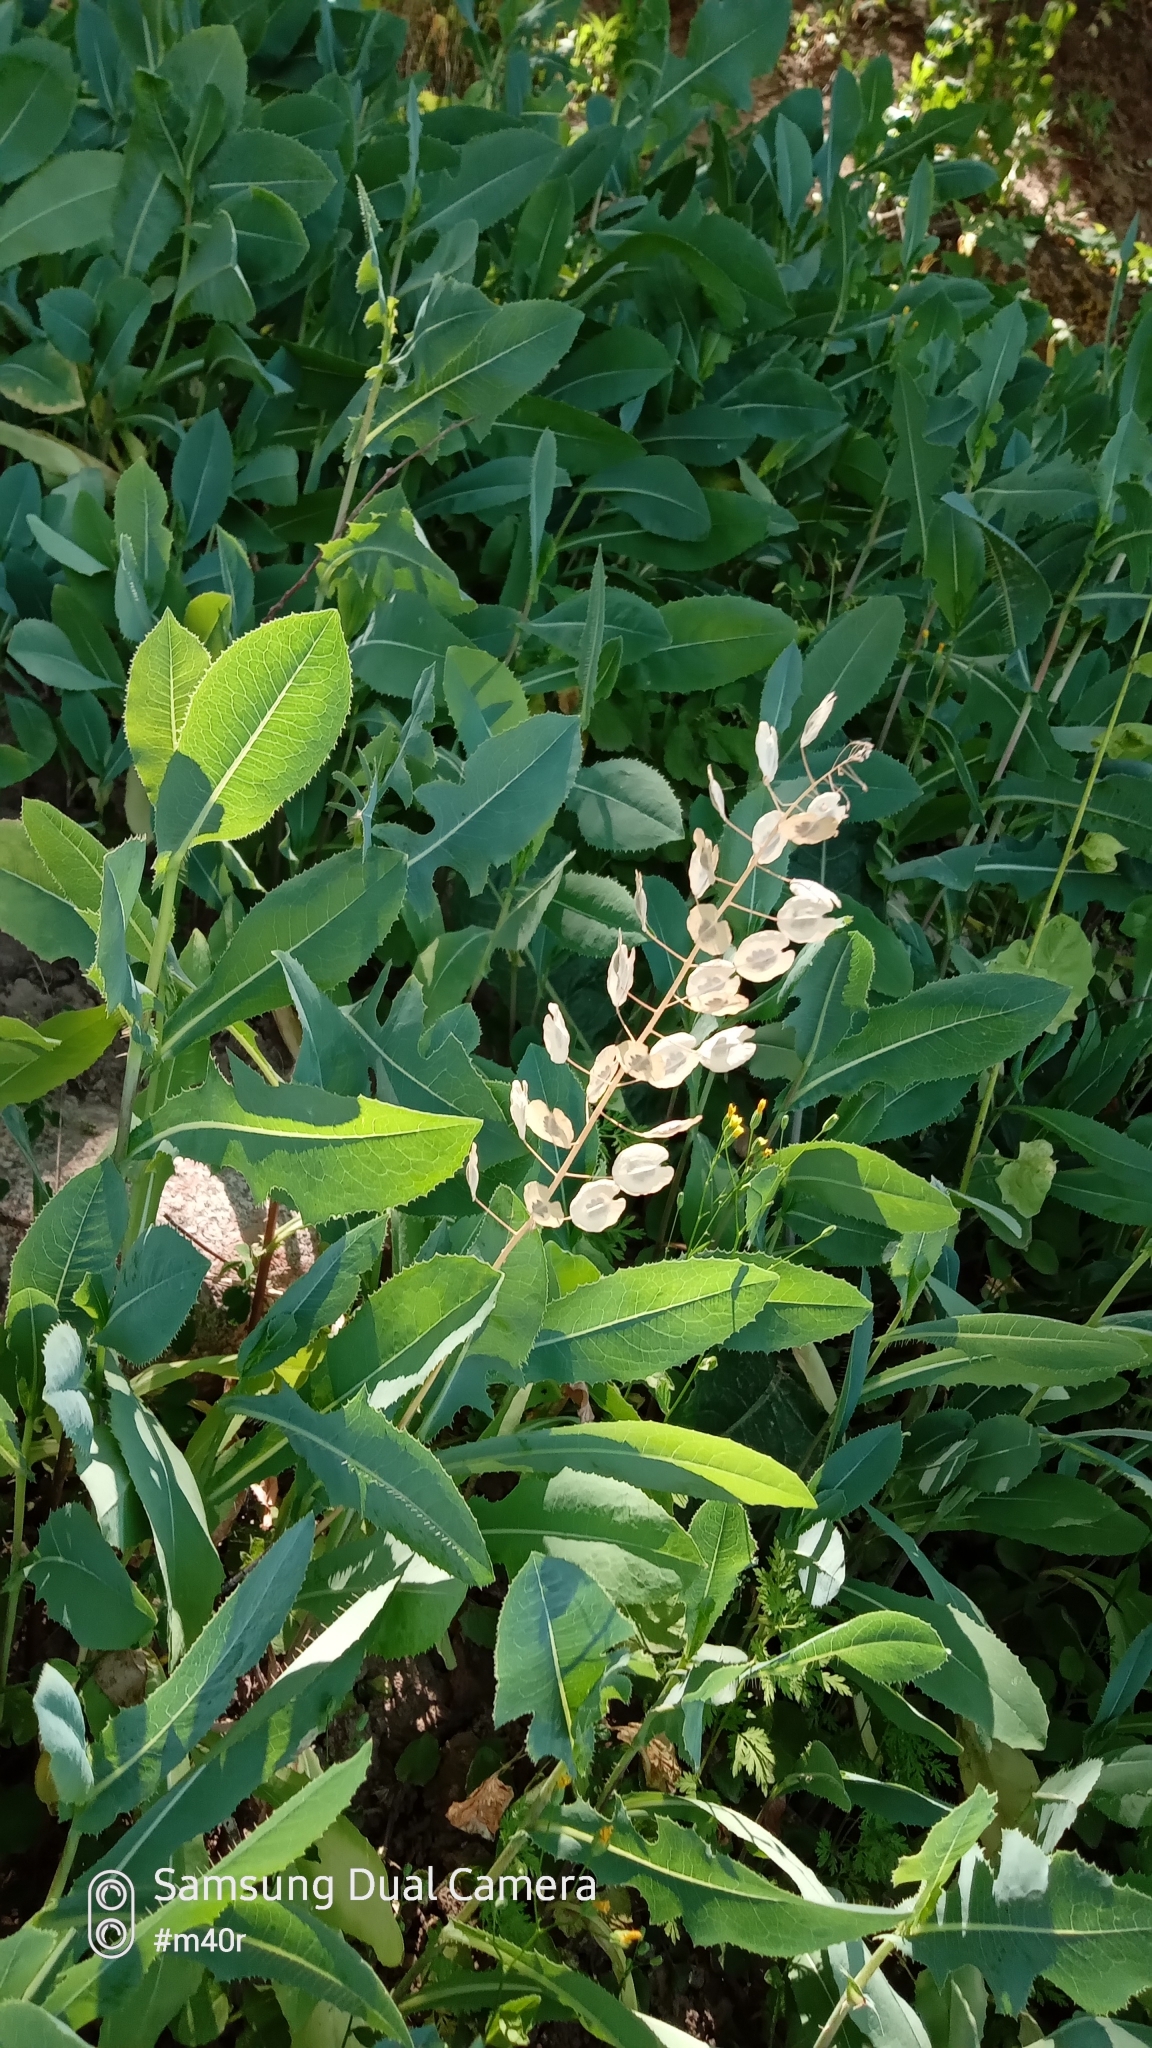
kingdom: Plantae
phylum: Tracheophyta
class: Magnoliopsida
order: Brassicales
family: Brassicaceae
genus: Thlaspi
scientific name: Thlaspi arvense
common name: Field pennycress
